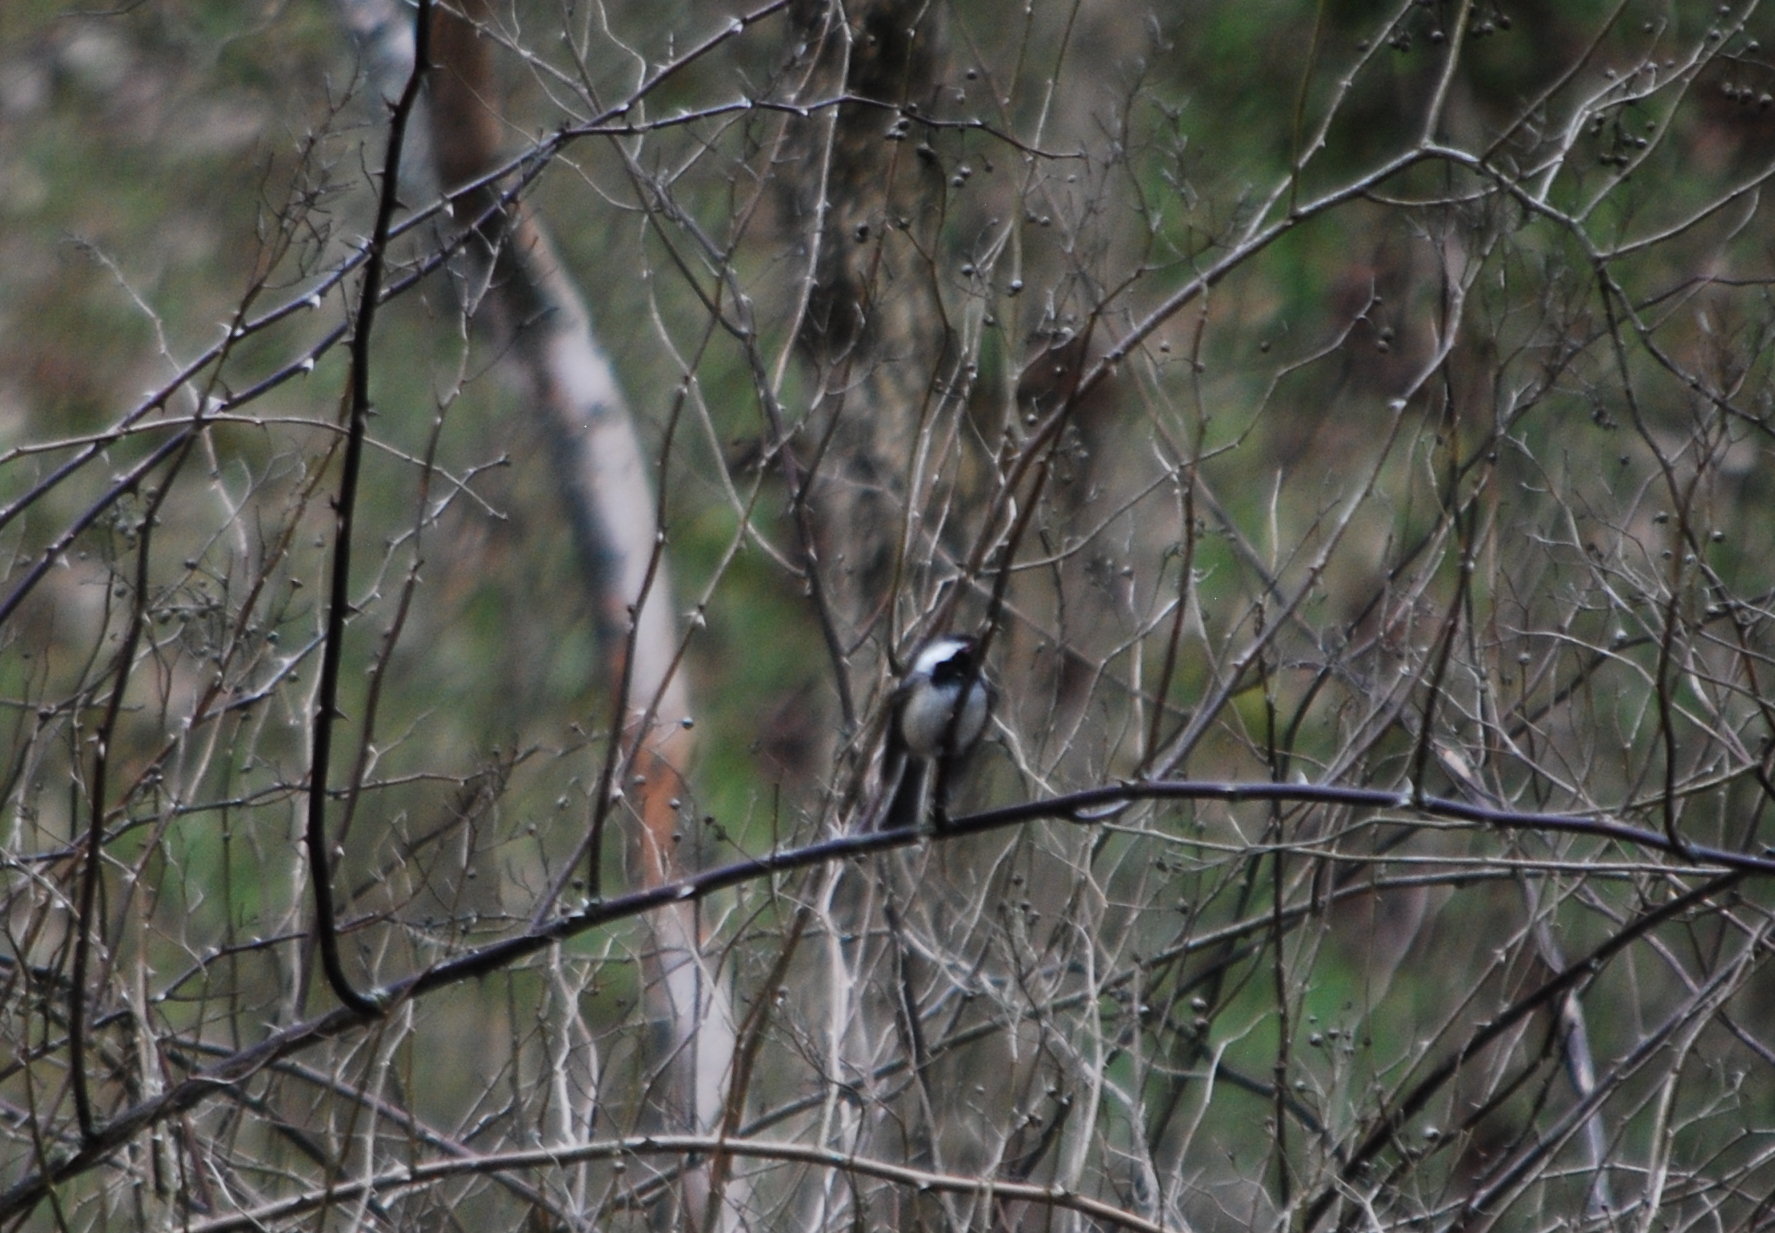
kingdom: Animalia
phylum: Chordata
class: Aves
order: Passeriformes
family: Paridae
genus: Poecile
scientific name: Poecile atricapillus
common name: Black-capped chickadee
